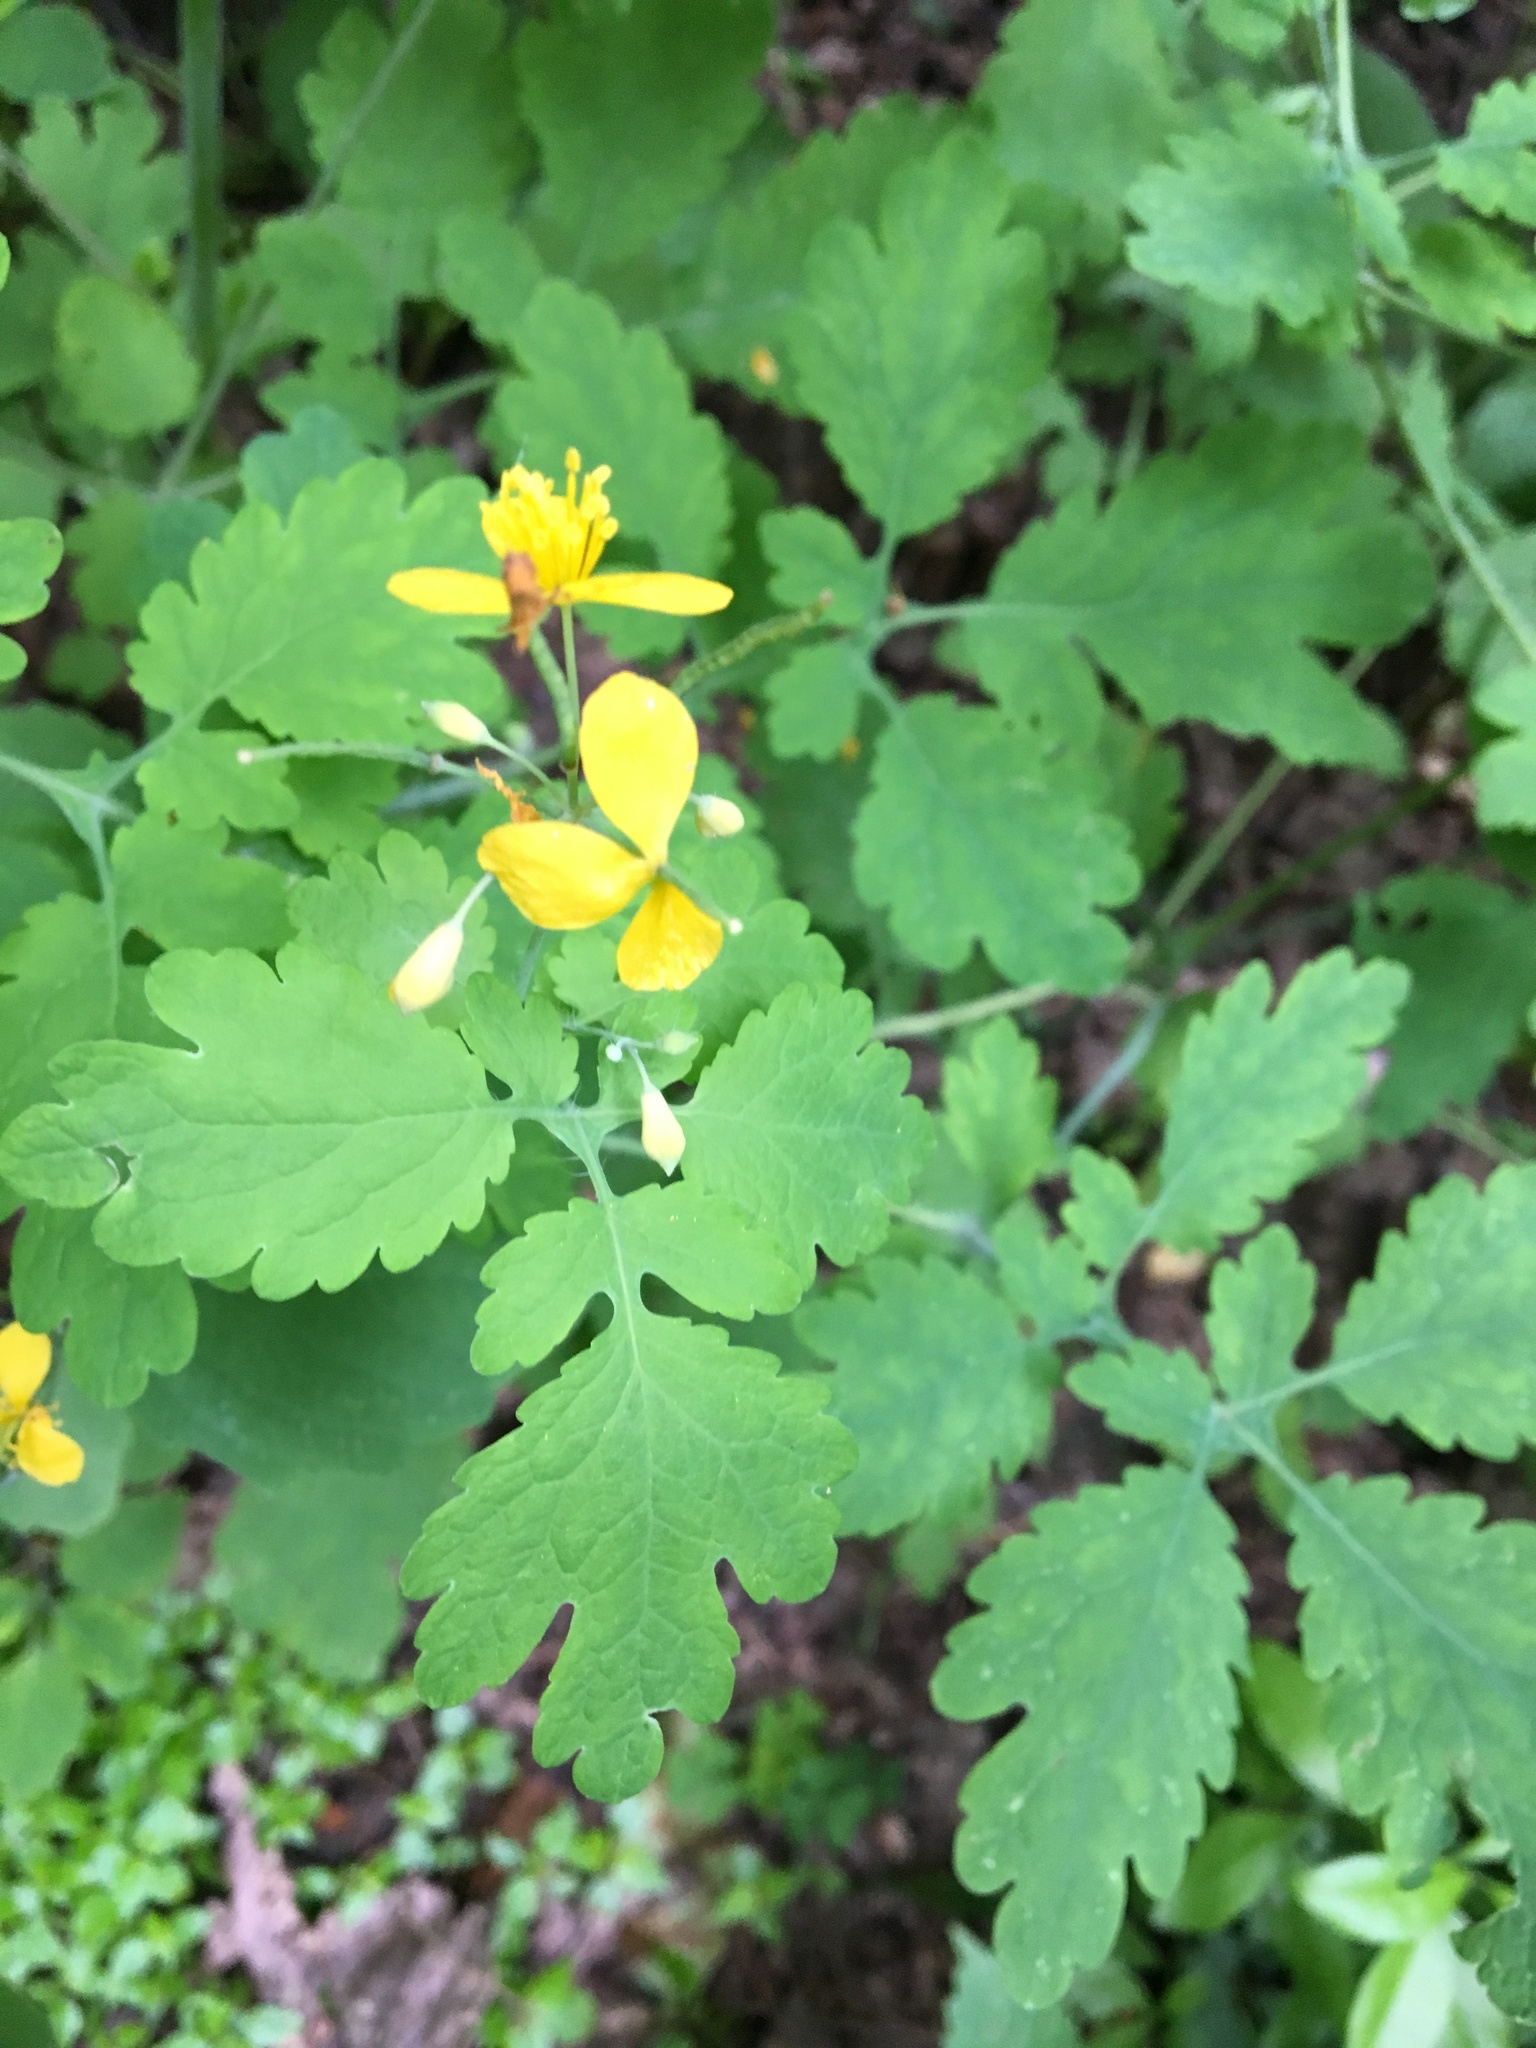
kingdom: Plantae
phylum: Tracheophyta
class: Magnoliopsida
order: Ranunculales
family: Papaveraceae
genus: Chelidonium
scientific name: Chelidonium majus
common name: Greater celandine
